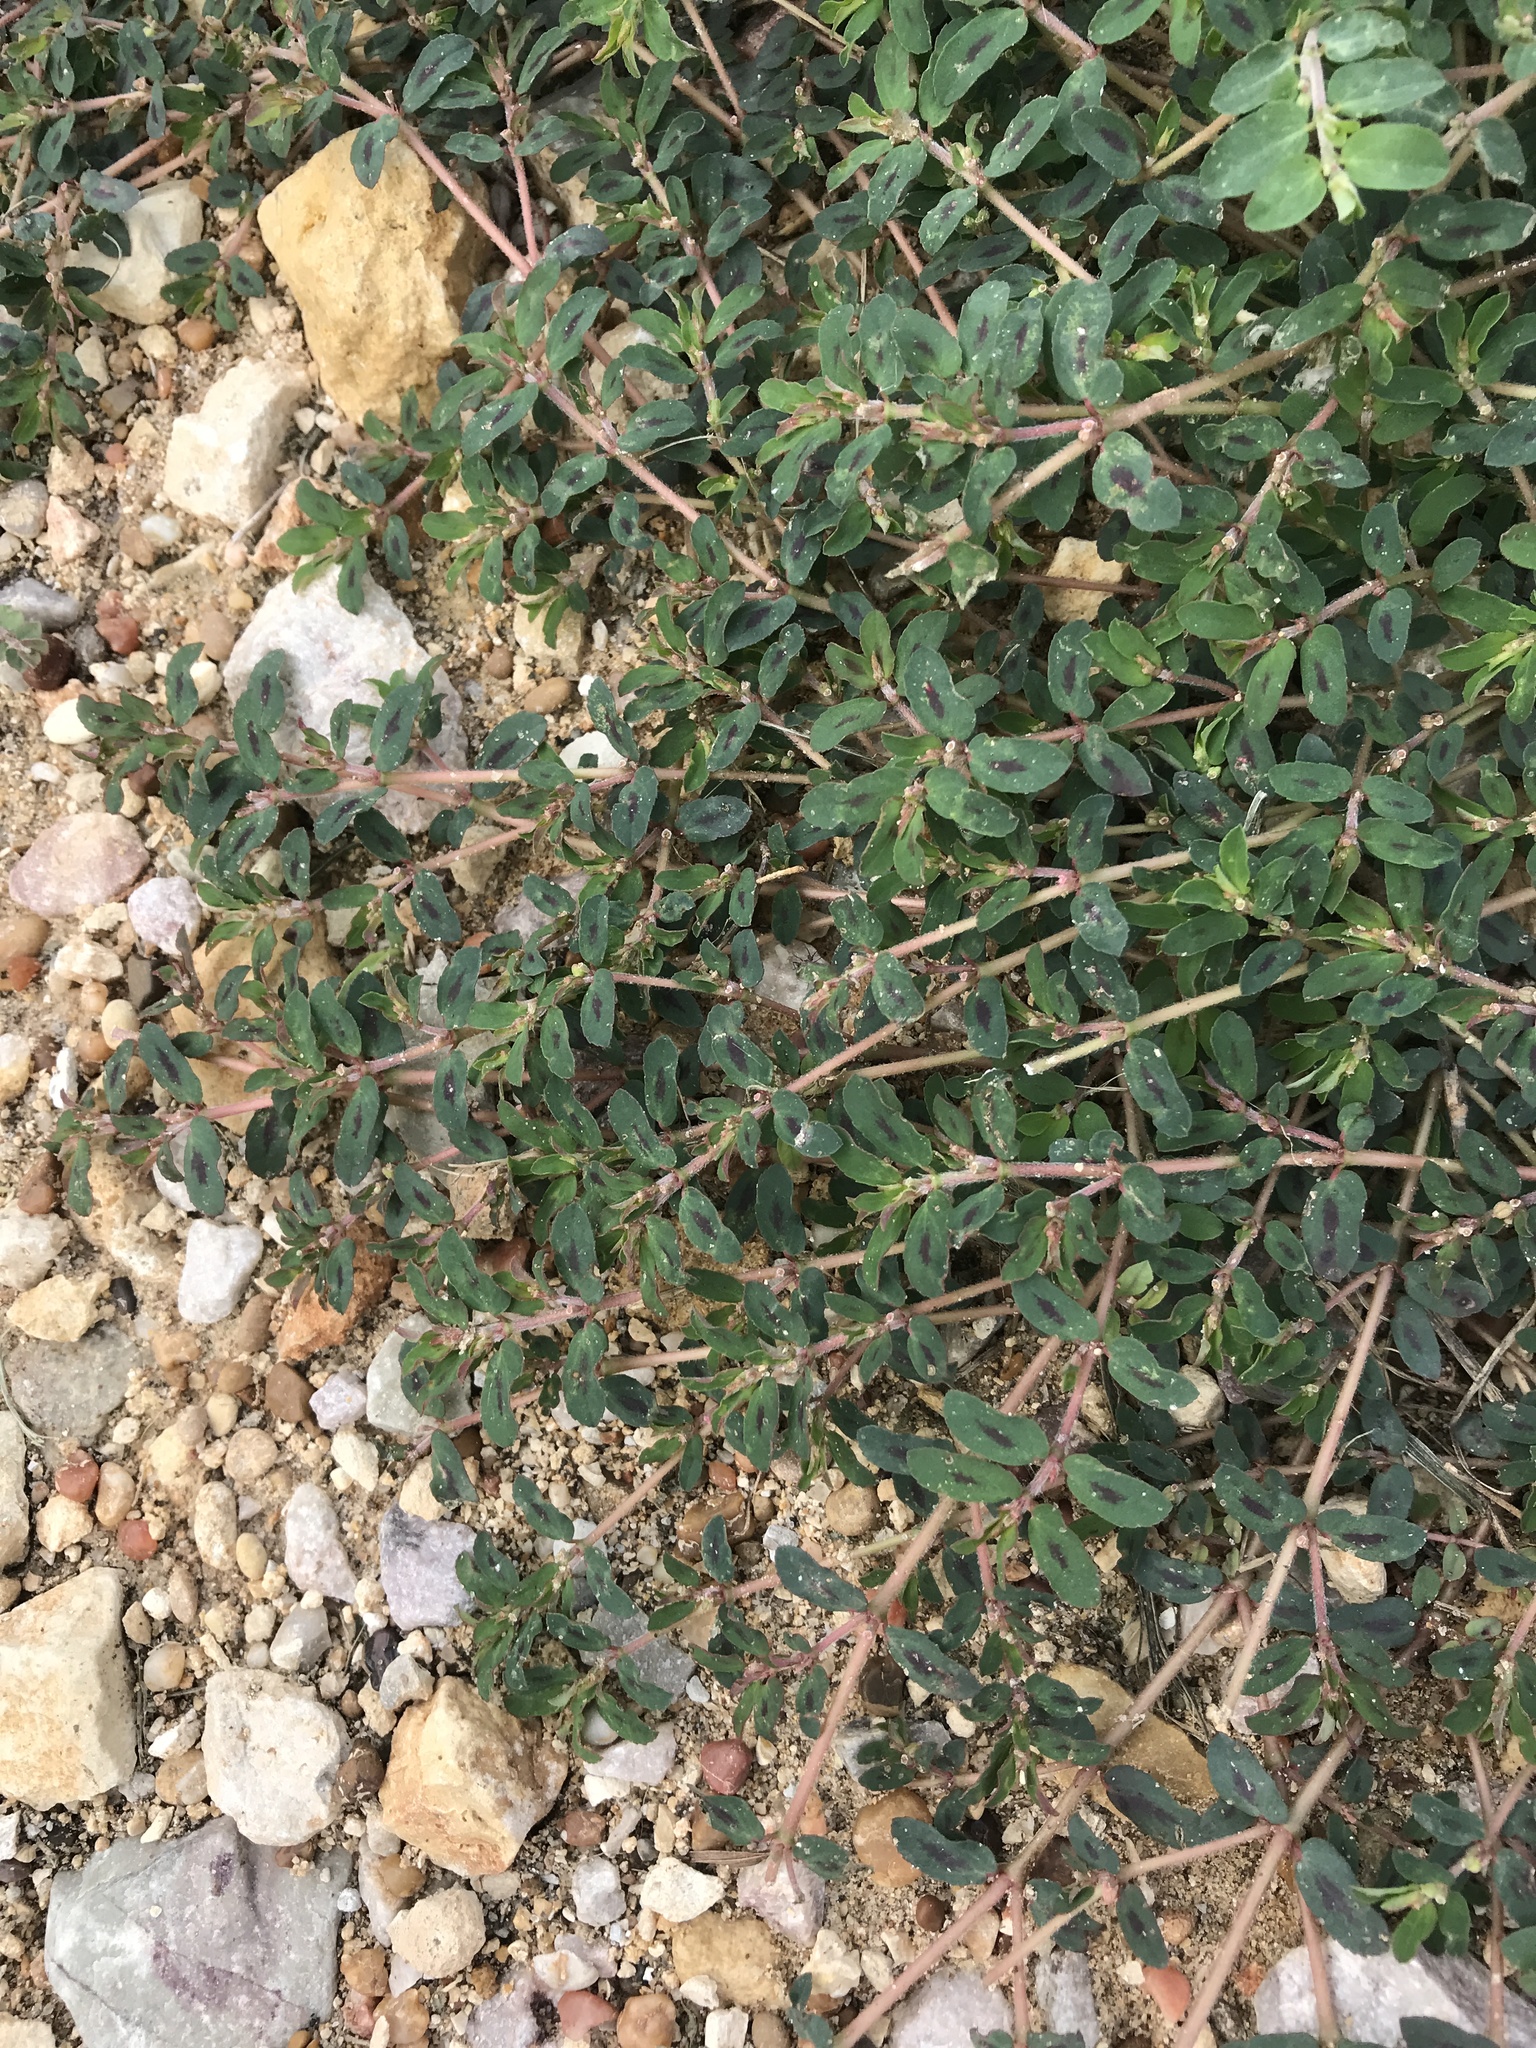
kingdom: Plantae
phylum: Tracheophyta
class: Magnoliopsida
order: Malpighiales
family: Euphorbiaceae
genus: Euphorbia
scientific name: Euphorbia maculata
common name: Spotted spurge
